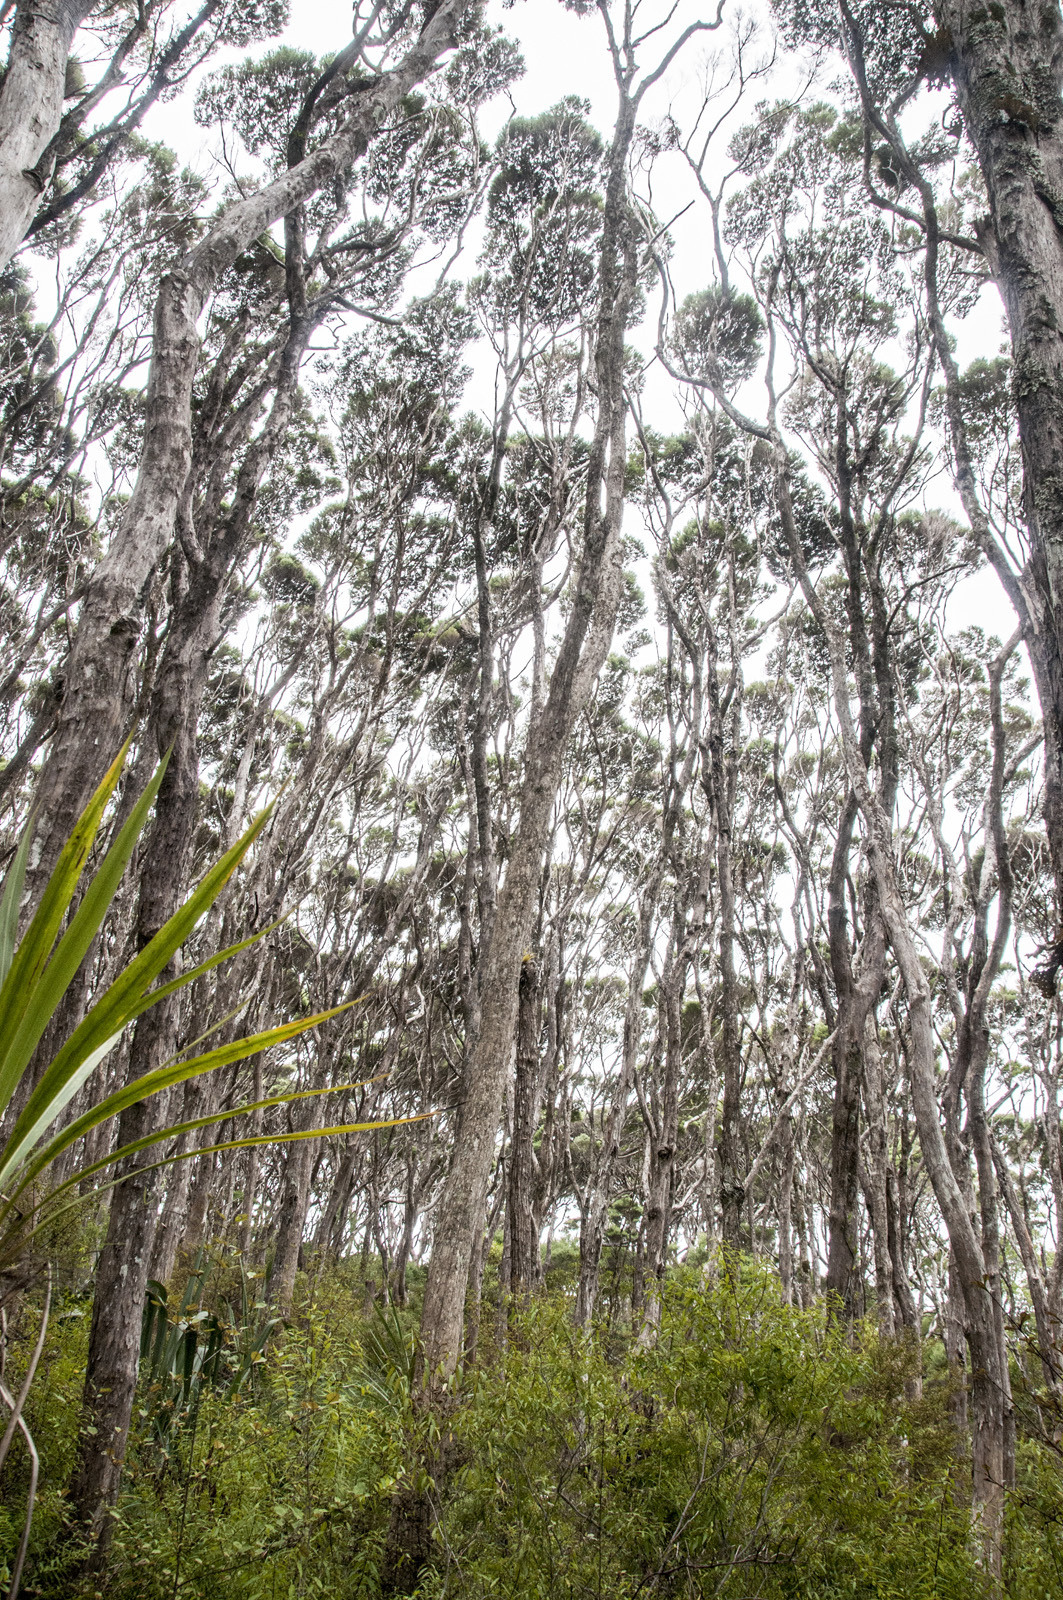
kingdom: Plantae
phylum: Tracheophyta
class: Magnoliopsida
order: Myrtales
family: Myrtaceae
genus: Kunzea
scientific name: Kunzea linearis
